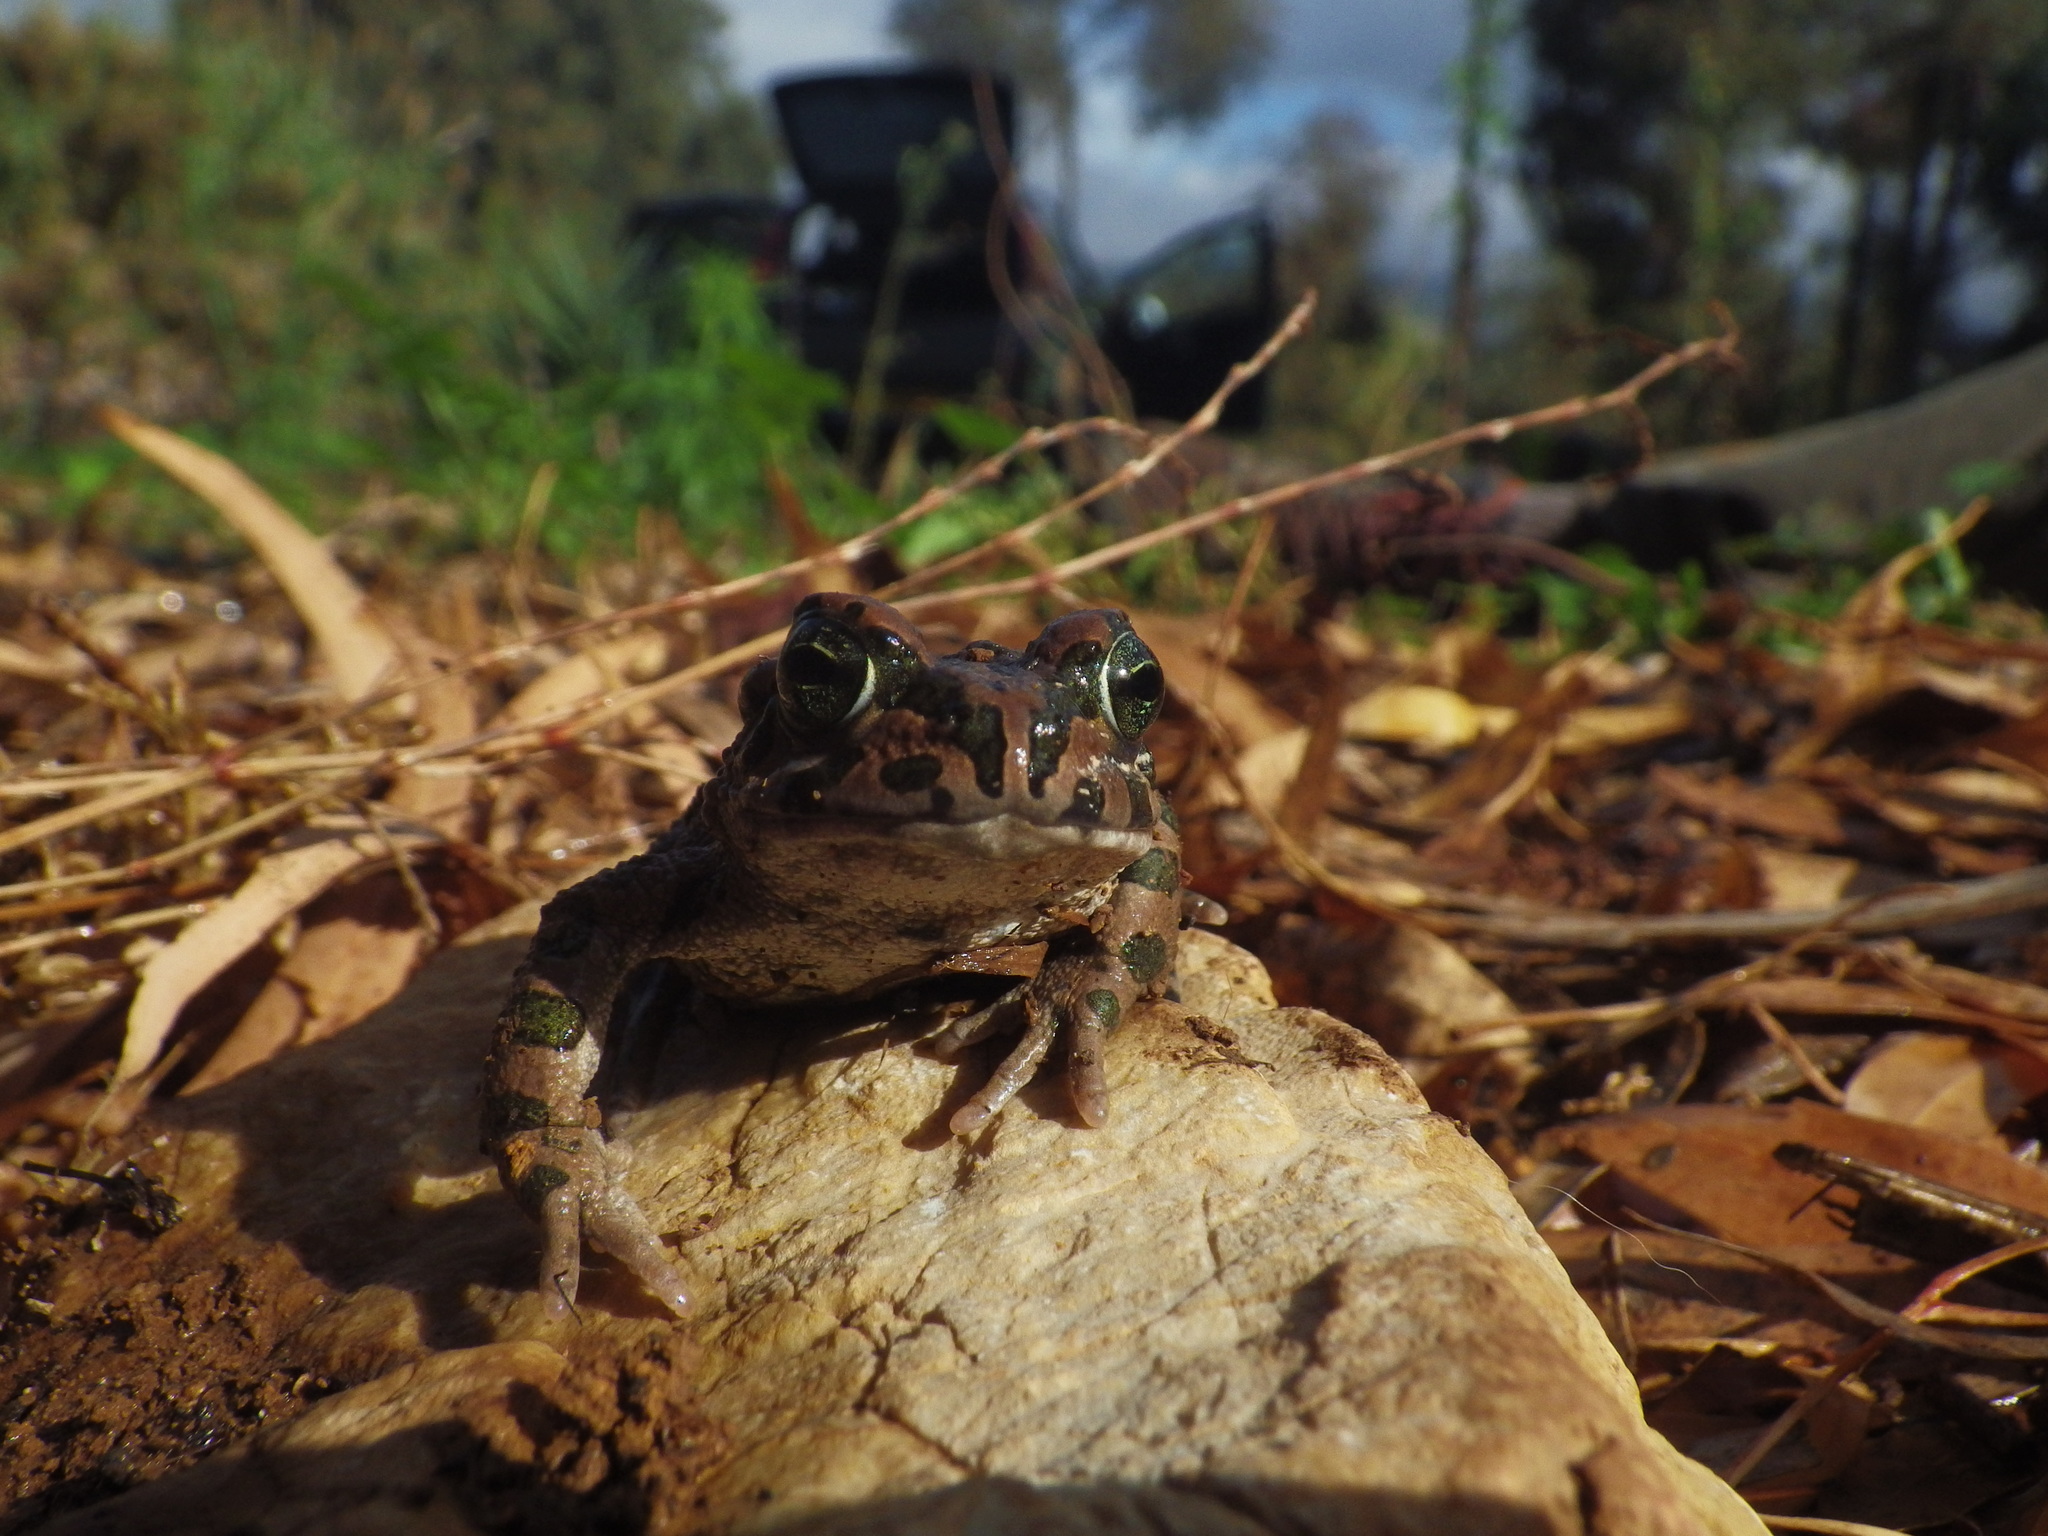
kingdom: Animalia
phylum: Chordata
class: Amphibia
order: Anura
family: Bufonidae
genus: Bufotes
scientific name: Bufotes viridis
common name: European green toad
